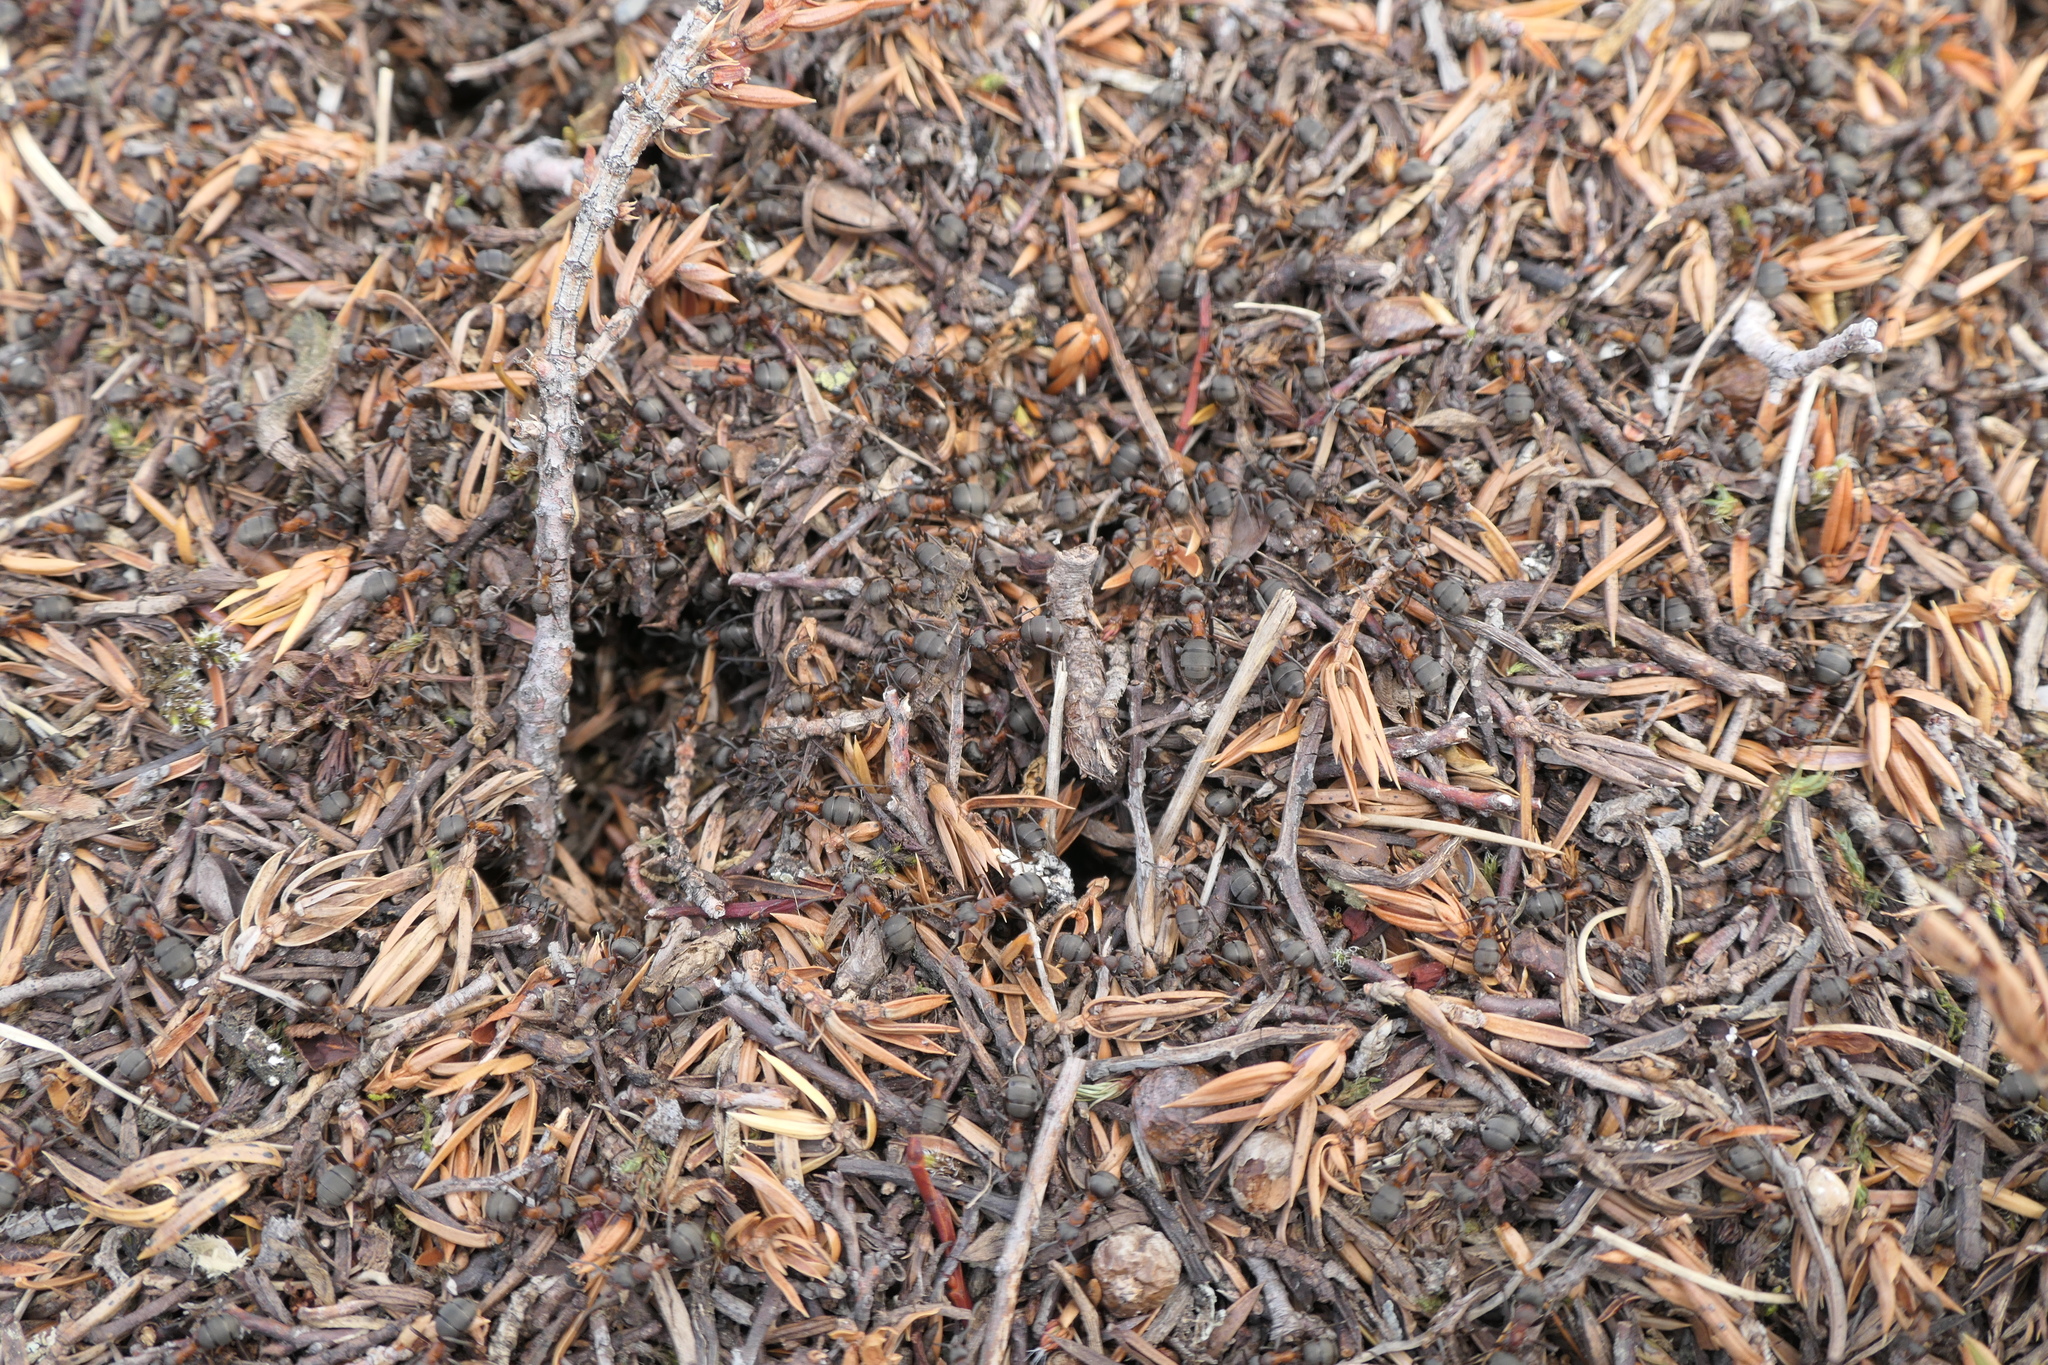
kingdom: Animalia
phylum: Arthropoda
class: Insecta
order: Hymenoptera
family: Formicidae
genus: Formica
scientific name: Formica rufa
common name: Red wood ant
